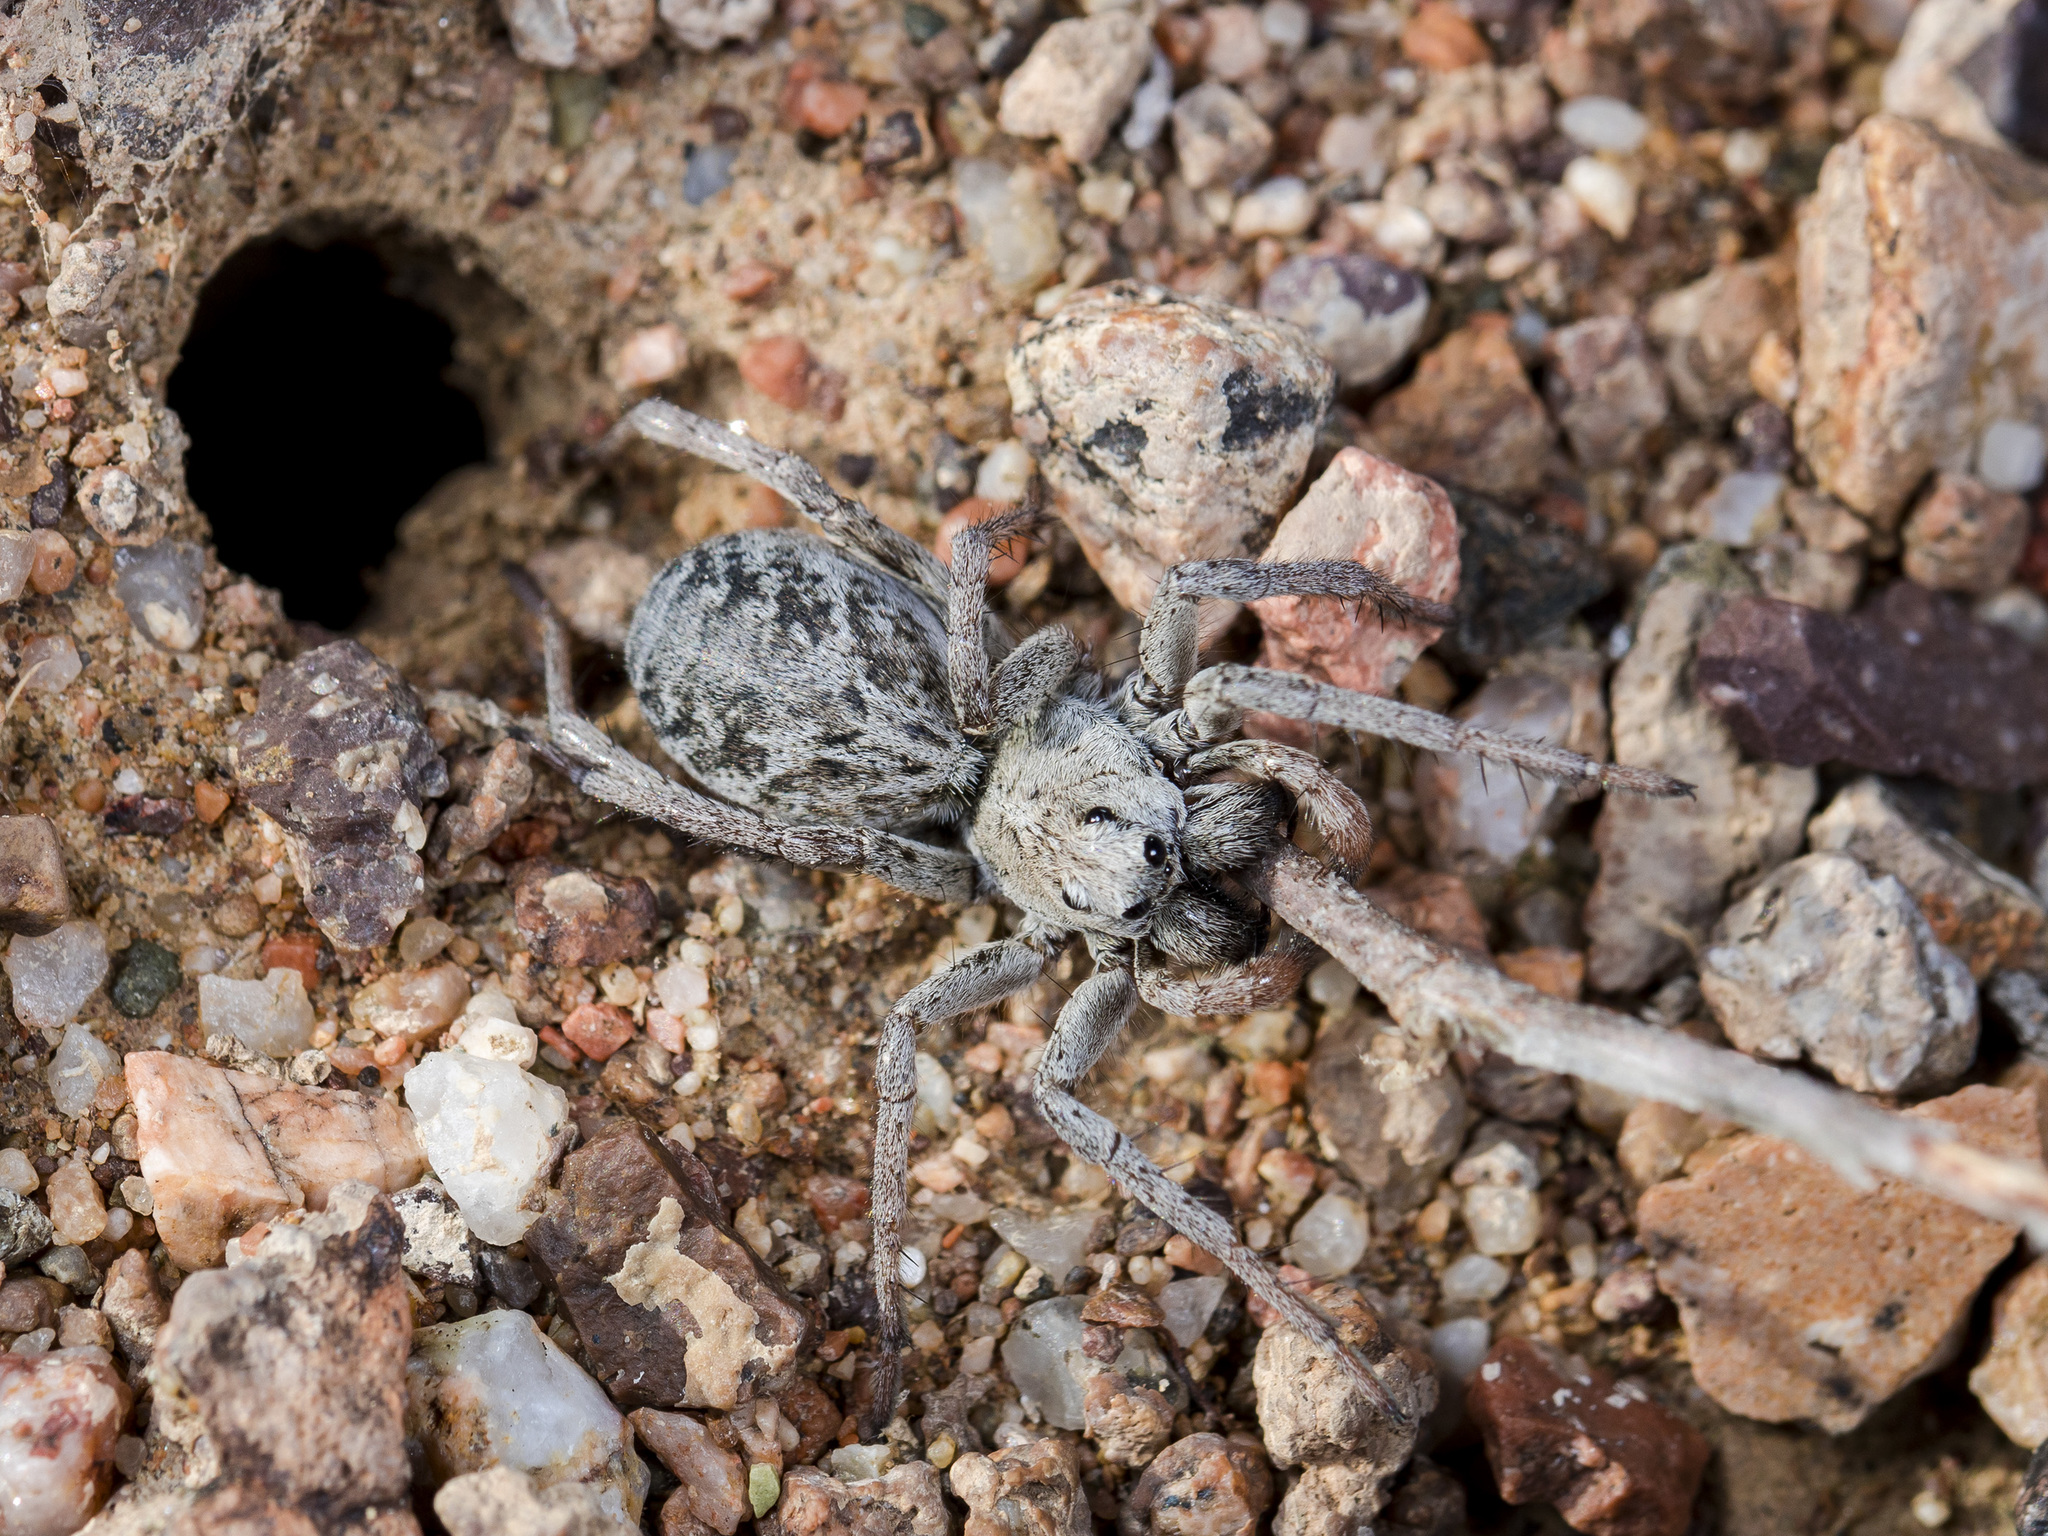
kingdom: Animalia
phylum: Arthropoda
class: Arachnida
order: Araneae
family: Lycosidae
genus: Alopecosa
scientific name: Alopecosa marikovskyi
